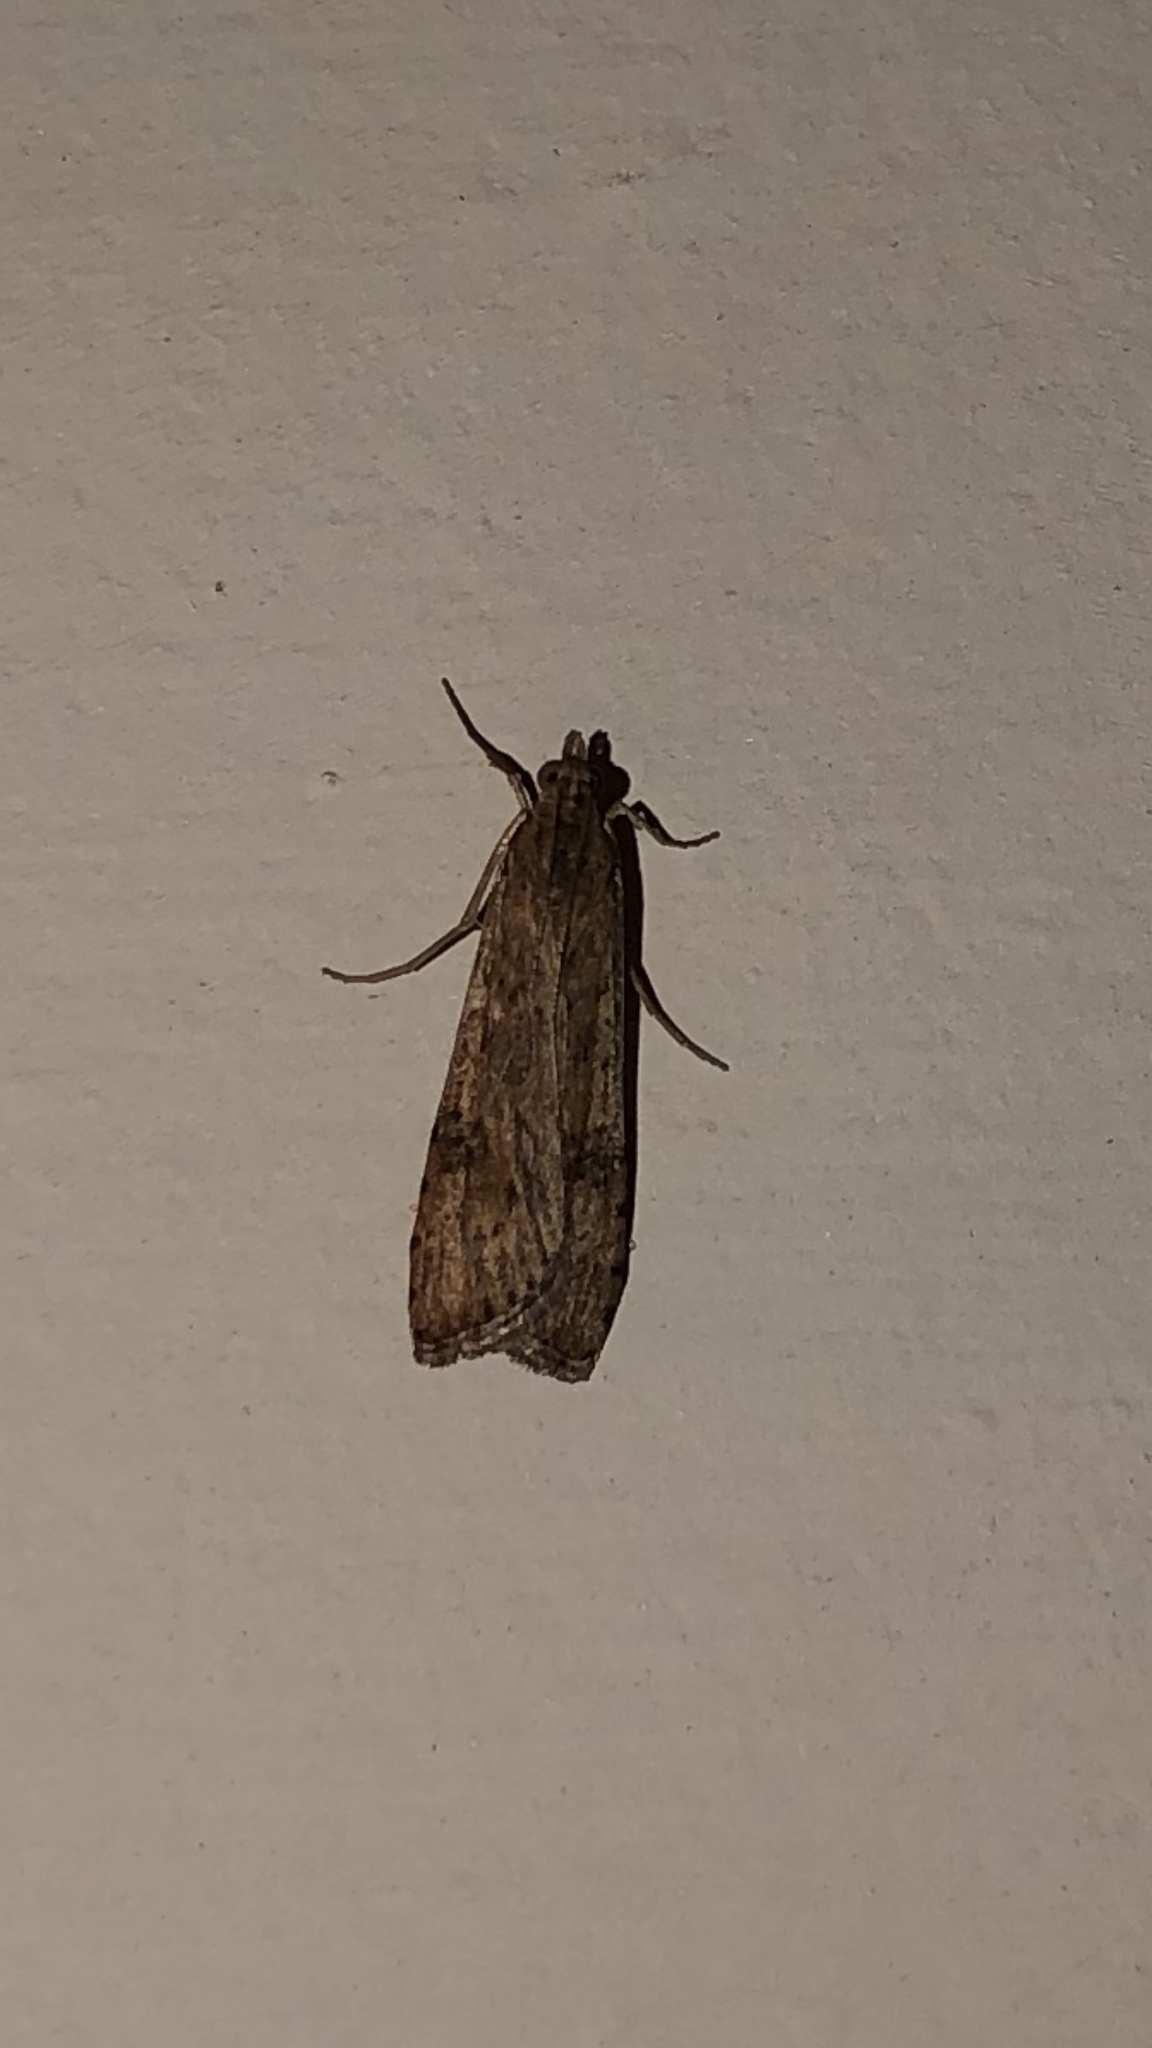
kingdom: Animalia
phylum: Arthropoda
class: Insecta
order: Lepidoptera
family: Crambidae
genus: Nomophila
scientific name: Nomophila nearctica
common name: American rush veneer
